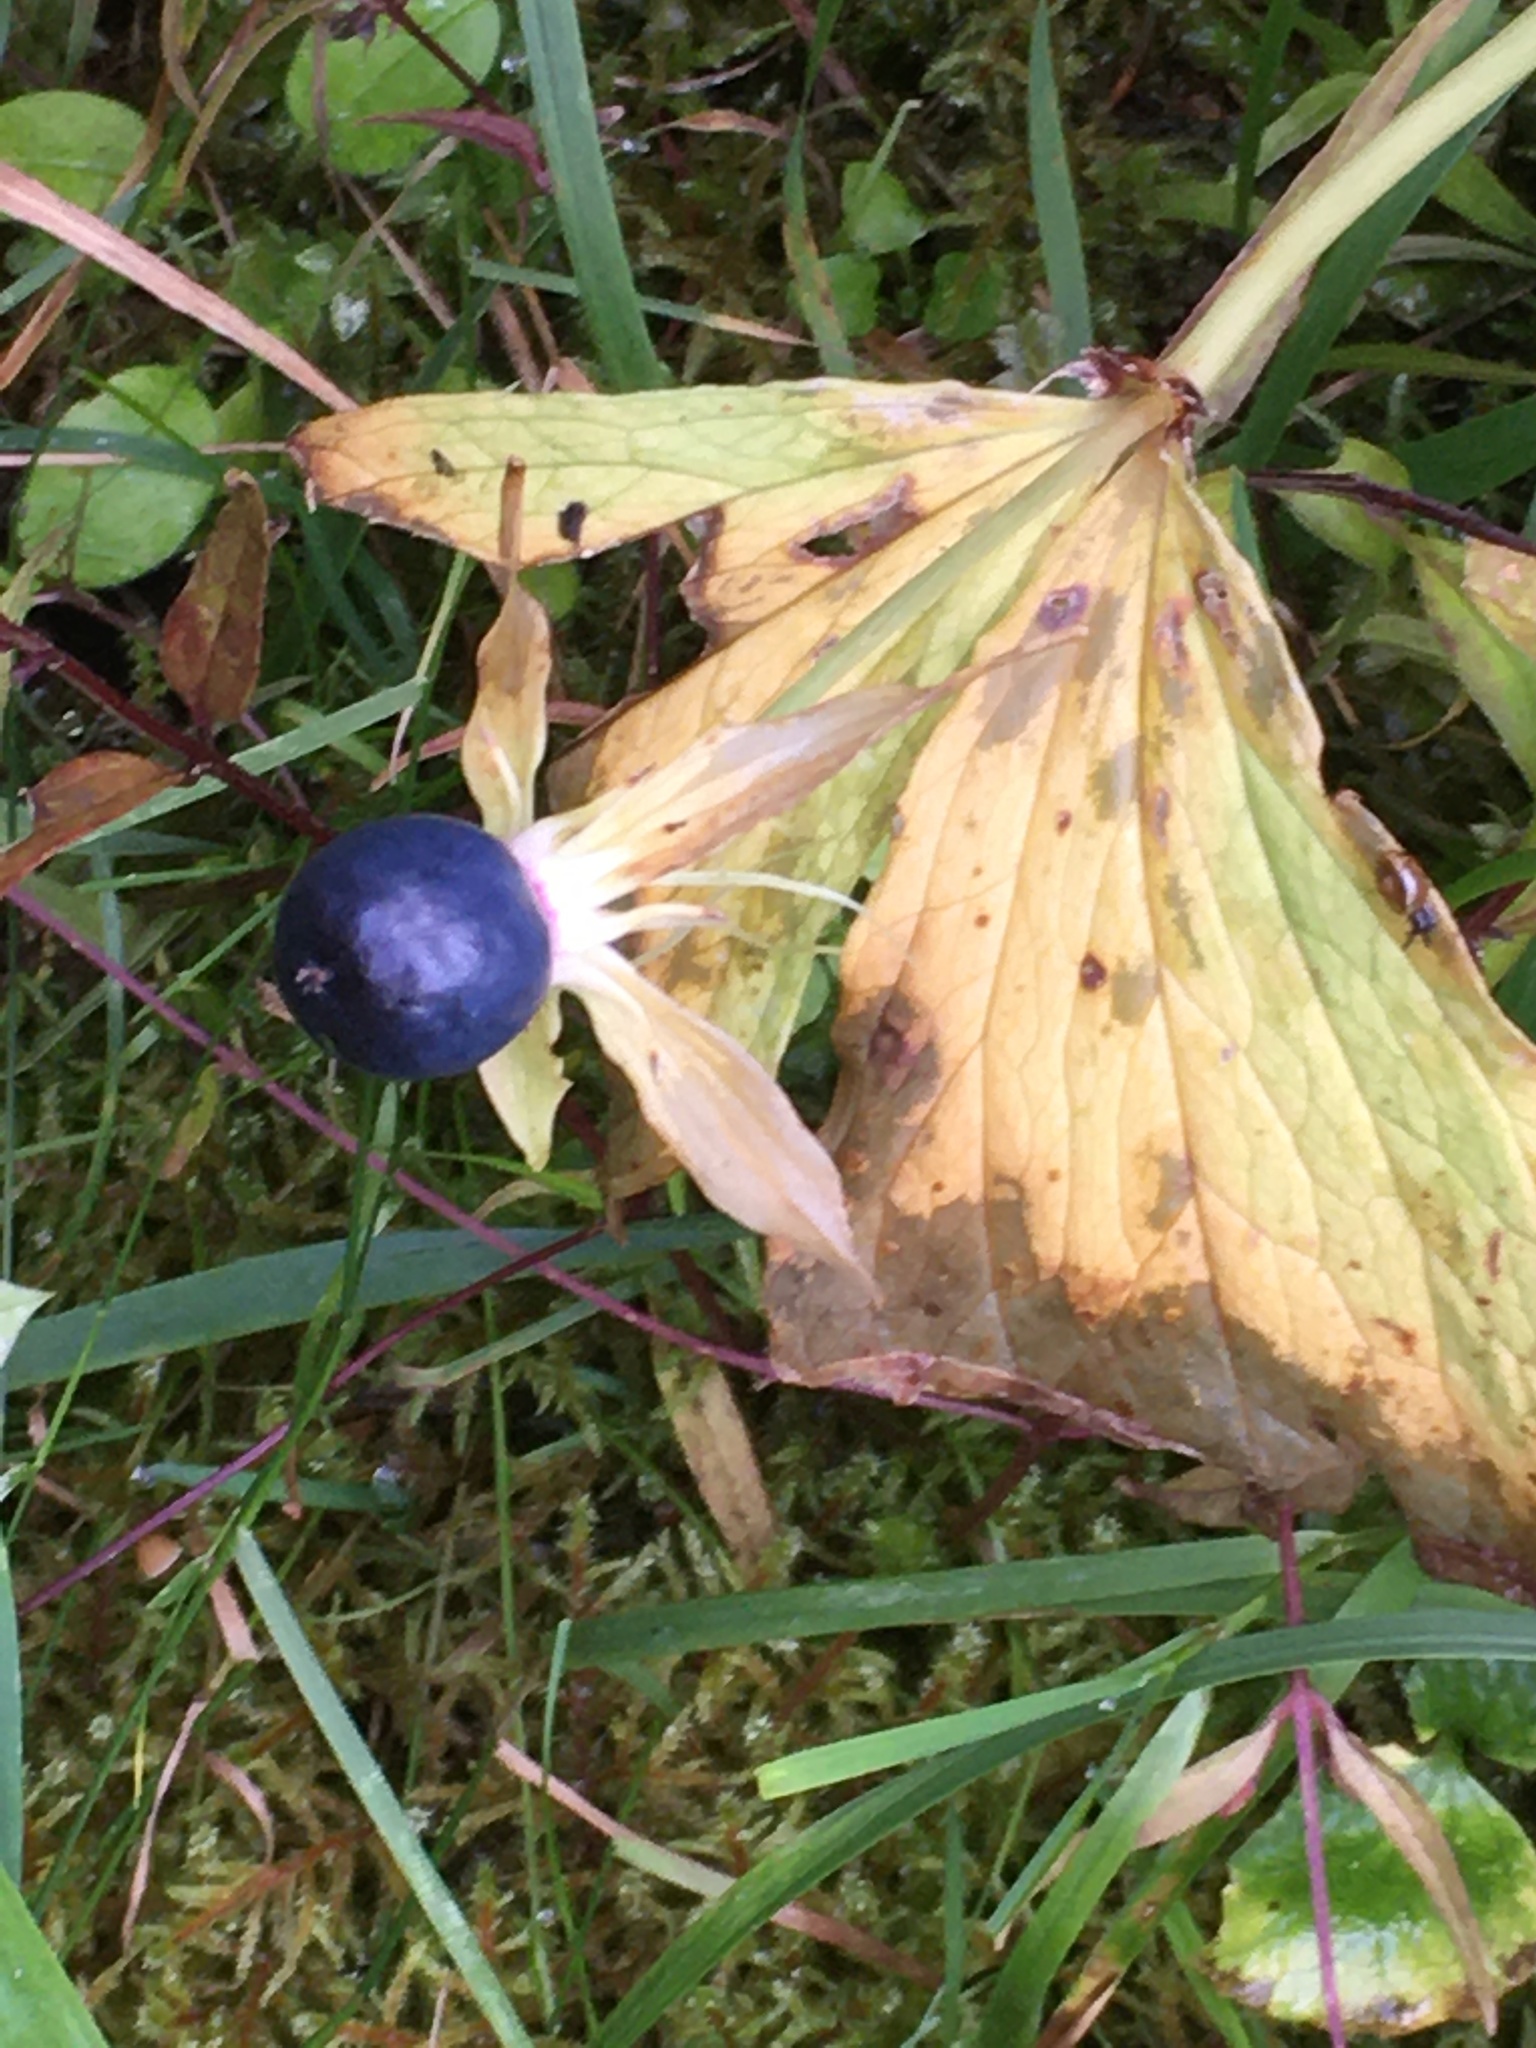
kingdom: Plantae
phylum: Tracheophyta
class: Liliopsida
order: Liliales
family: Melanthiaceae
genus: Paris
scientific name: Paris quadrifolia
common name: Herb-paris
